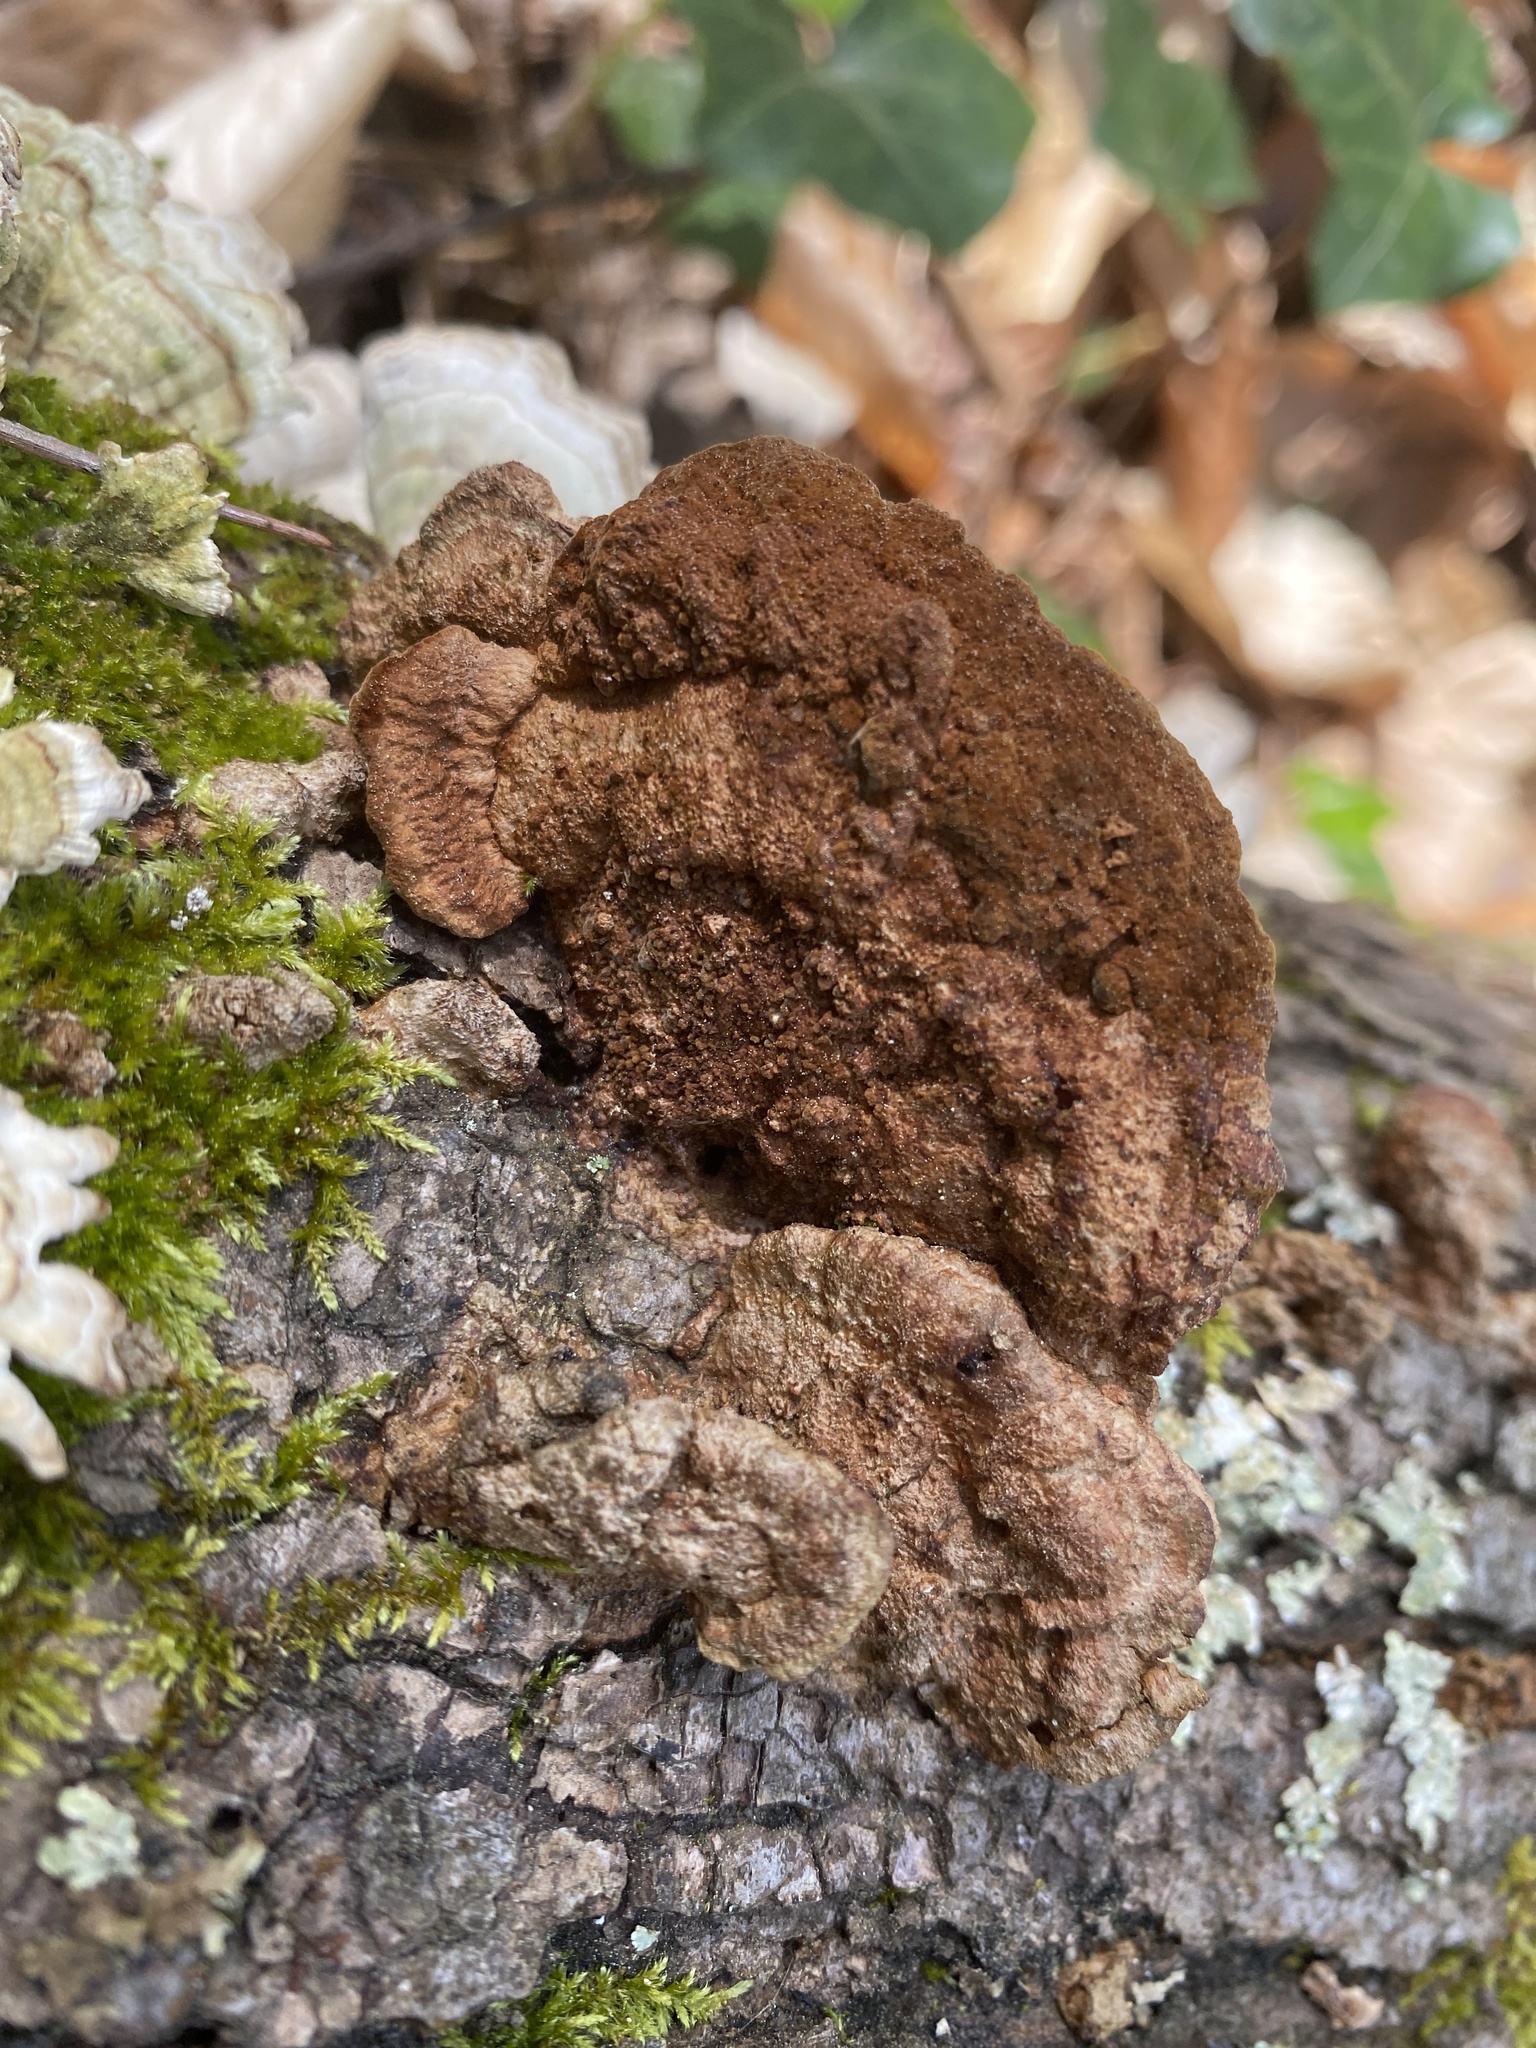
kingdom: Fungi
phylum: Basidiomycota
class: Agaricomycetes
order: Hymenochaetales
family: Hymenochaetaceae
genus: Phellinus
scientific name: Phellinus gilvus
